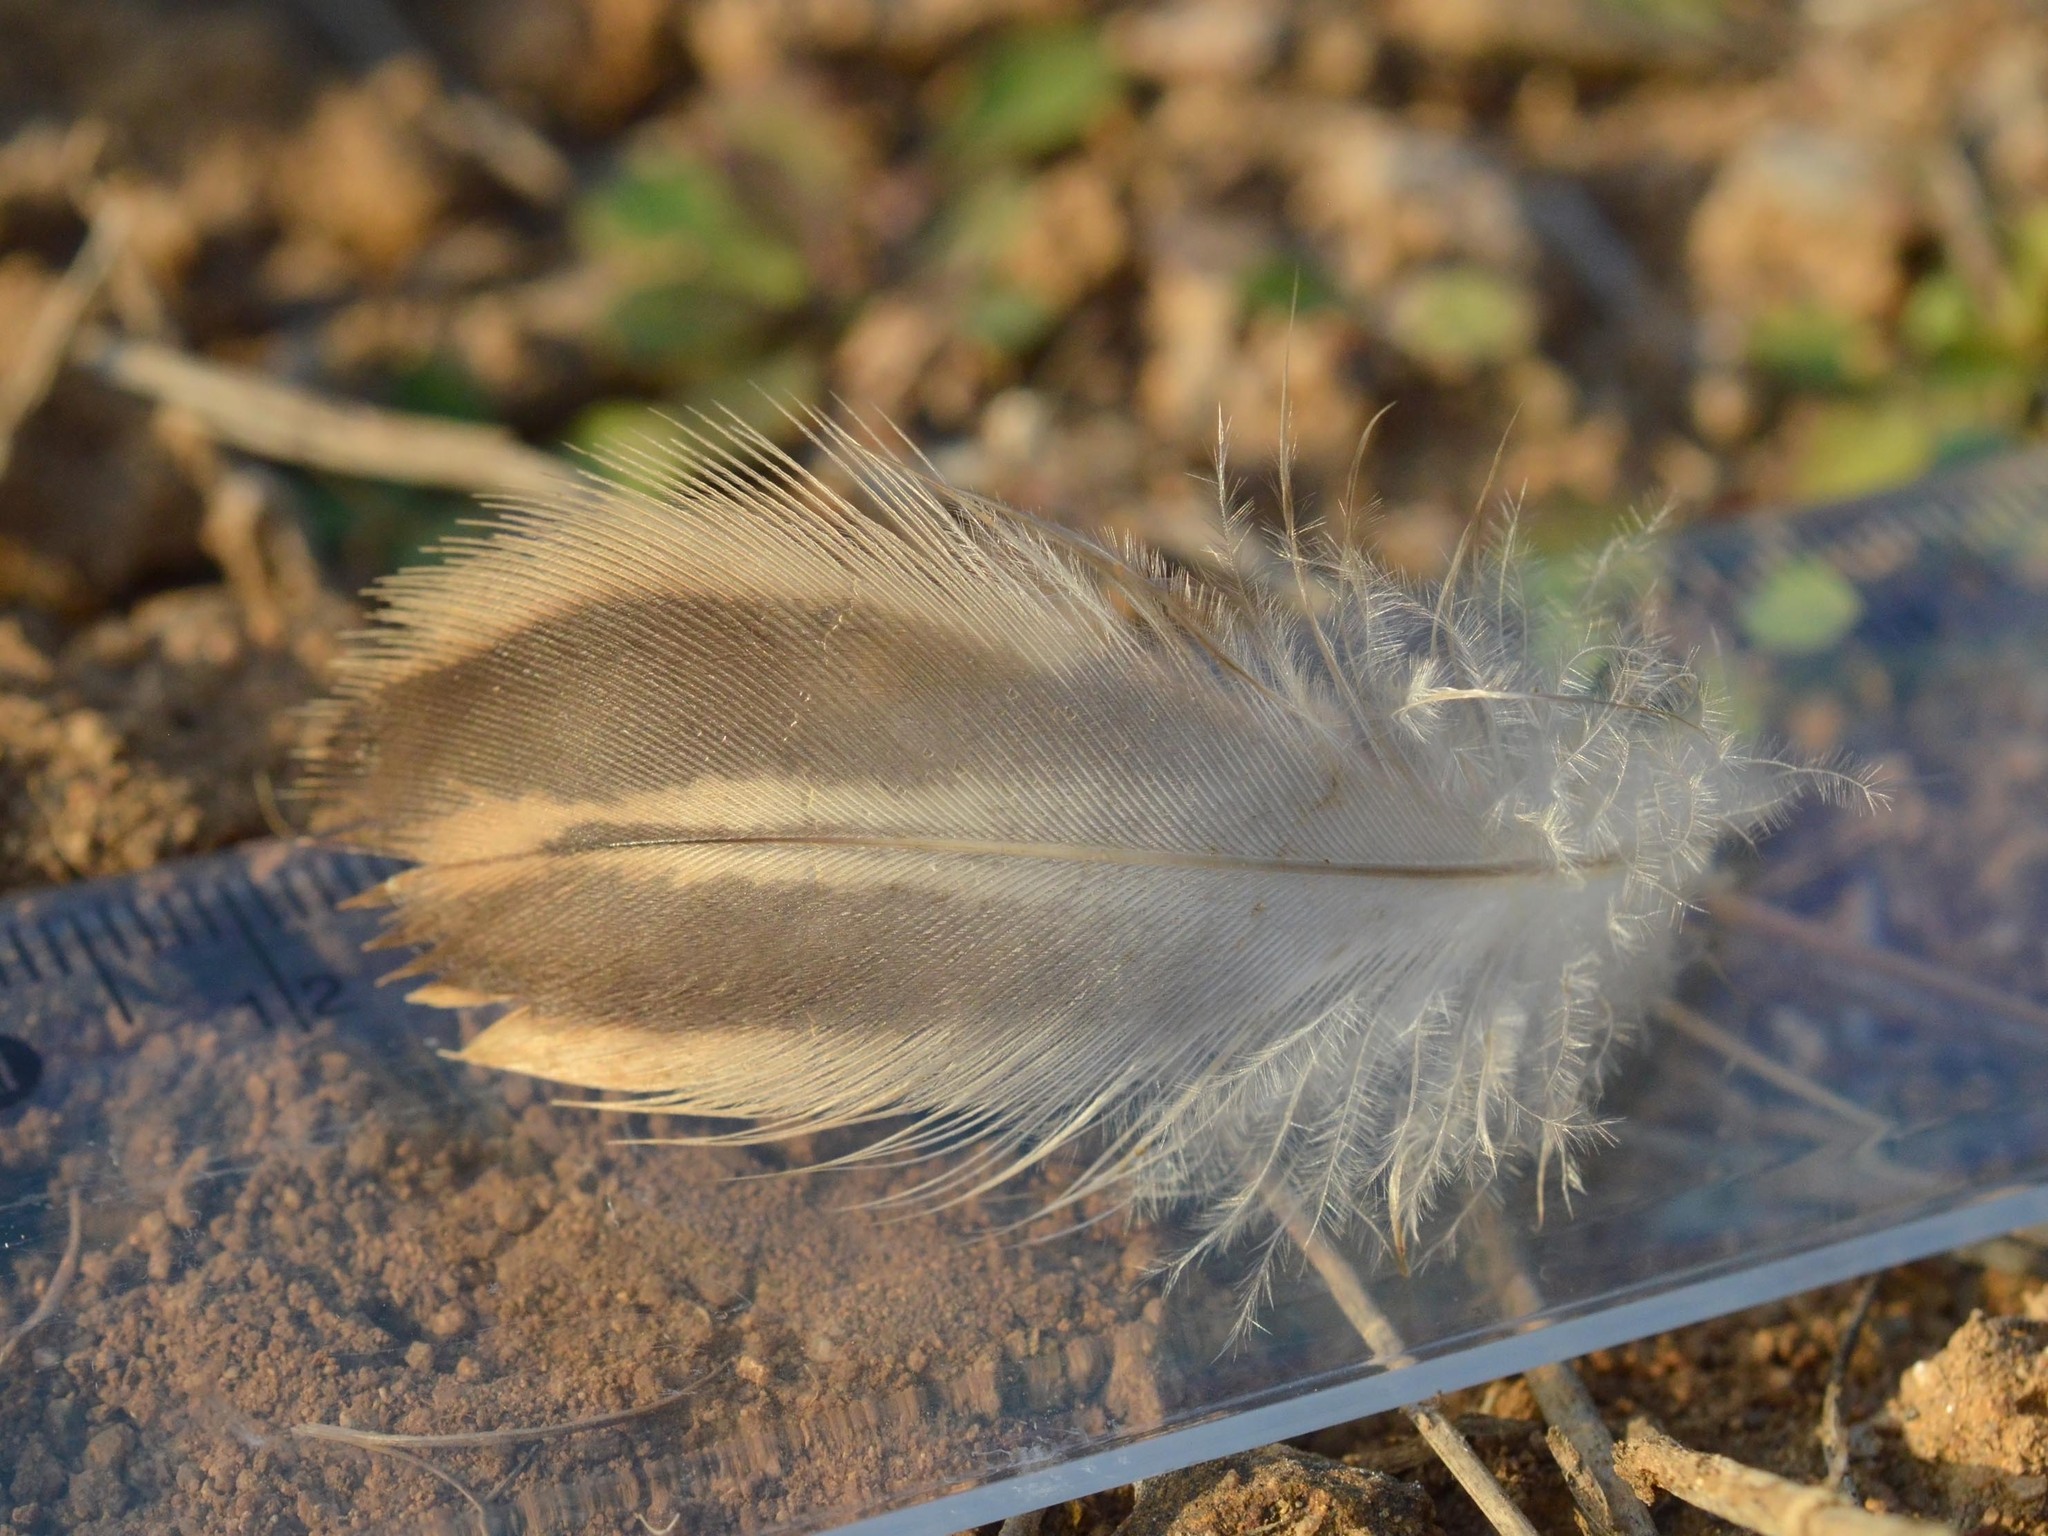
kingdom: Animalia
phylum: Chordata
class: Aves
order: Anseriformes
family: Anatidae
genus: Anas
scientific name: Anas platyrhynchos
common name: Mallard
